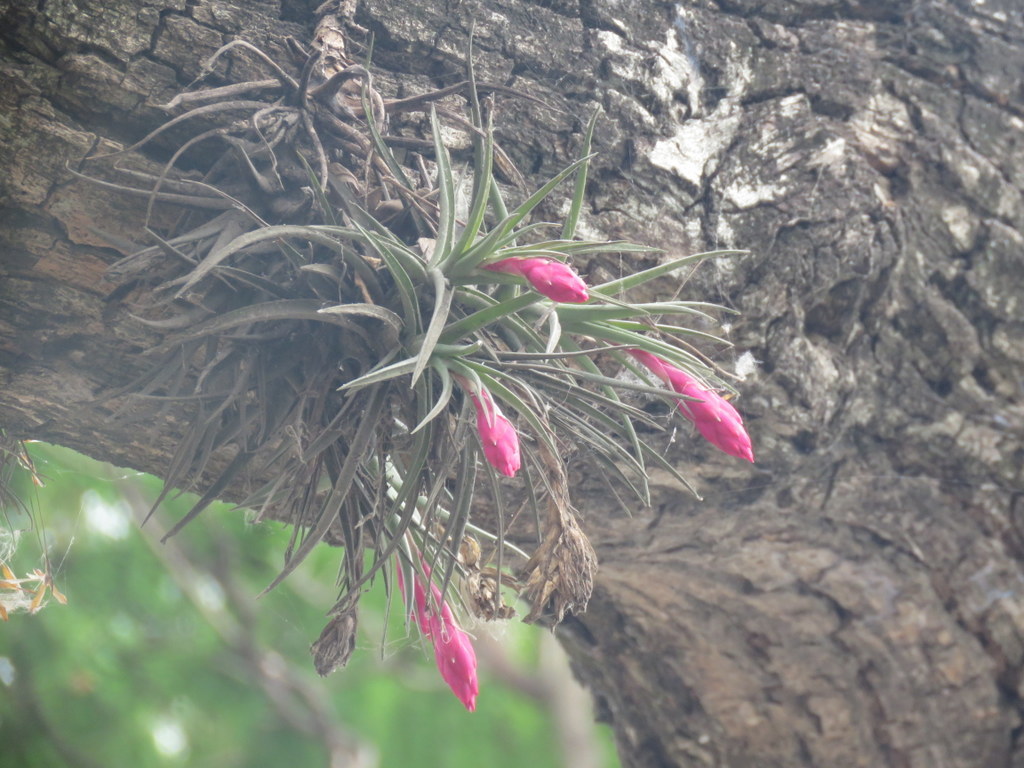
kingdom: Plantae
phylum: Tracheophyta
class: Liliopsida
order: Poales
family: Bromeliaceae
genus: Tillandsia
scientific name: Tillandsia aeranthos
